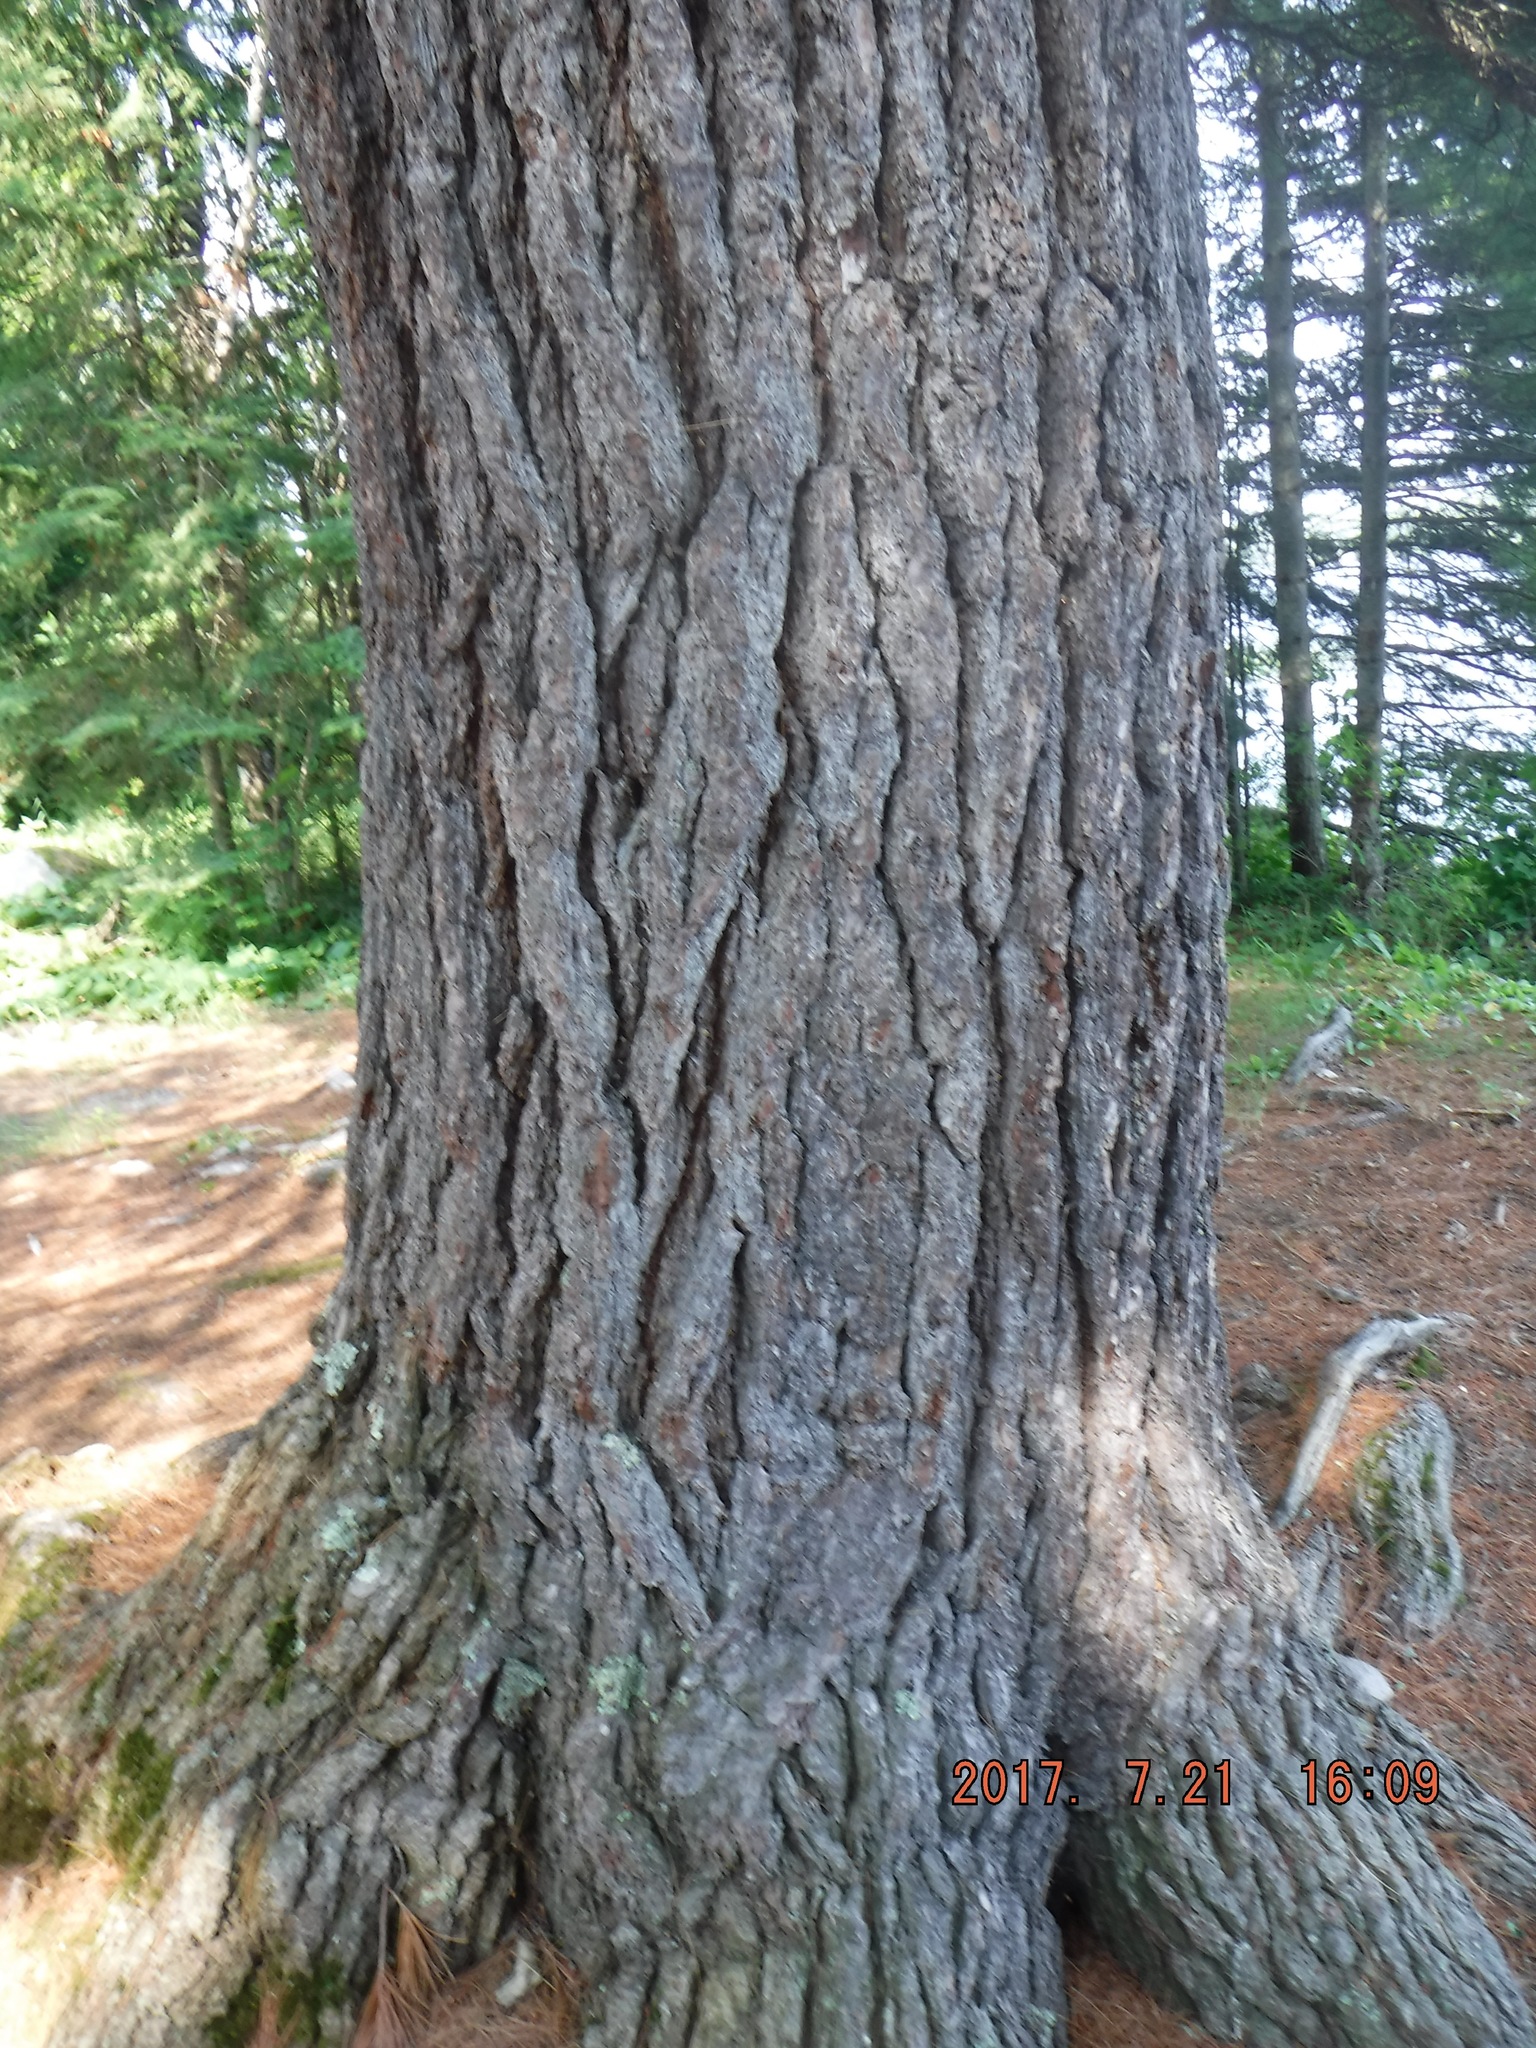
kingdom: Plantae
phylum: Tracheophyta
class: Pinopsida
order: Pinales
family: Pinaceae
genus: Pinus
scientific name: Pinus strobus
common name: Weymouth pine
